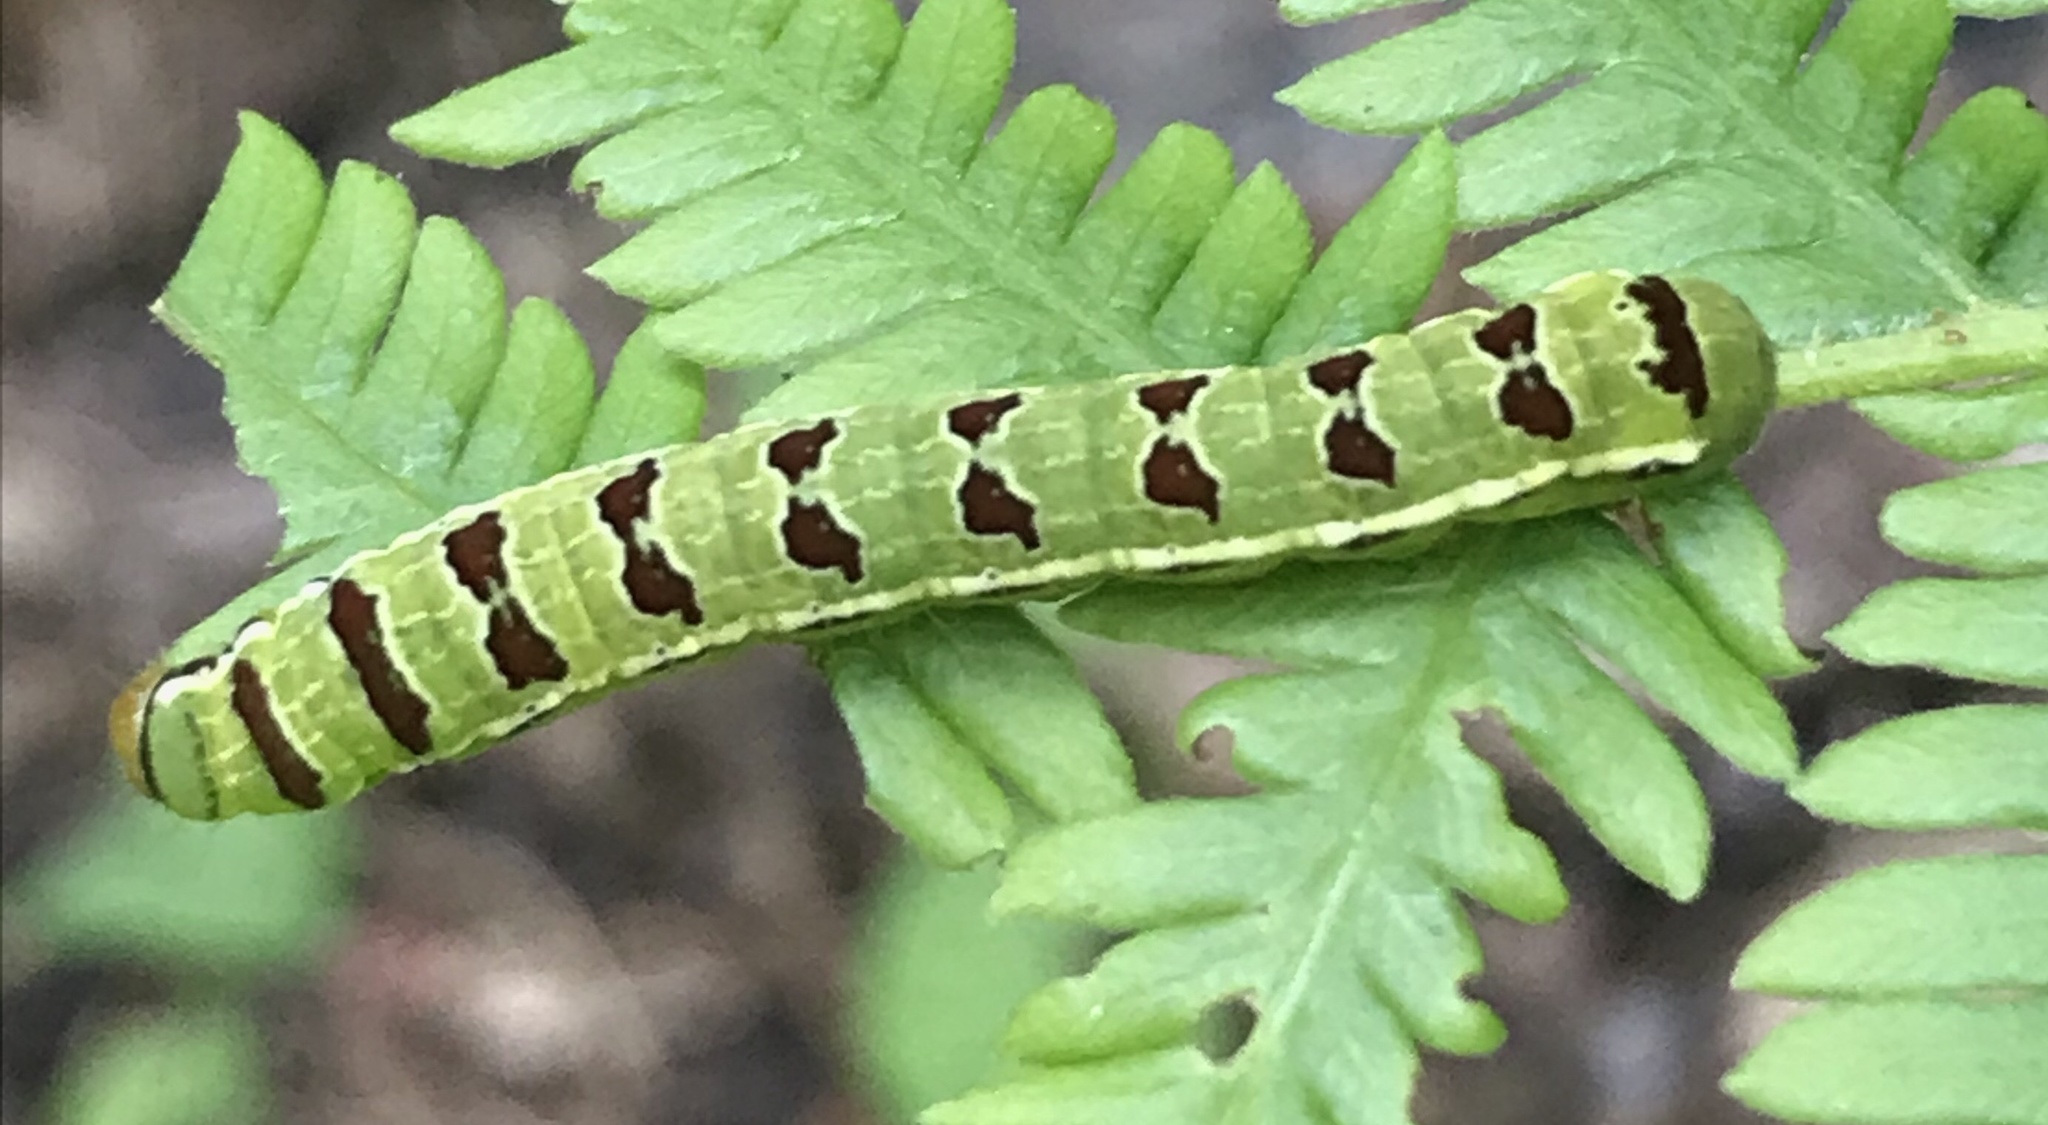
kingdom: Animalia
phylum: Arthropoda
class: Insecta
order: Lepidoptera
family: Noctuidae
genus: Callopistria
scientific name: Callopistria floridensis
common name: Florida fern moth
